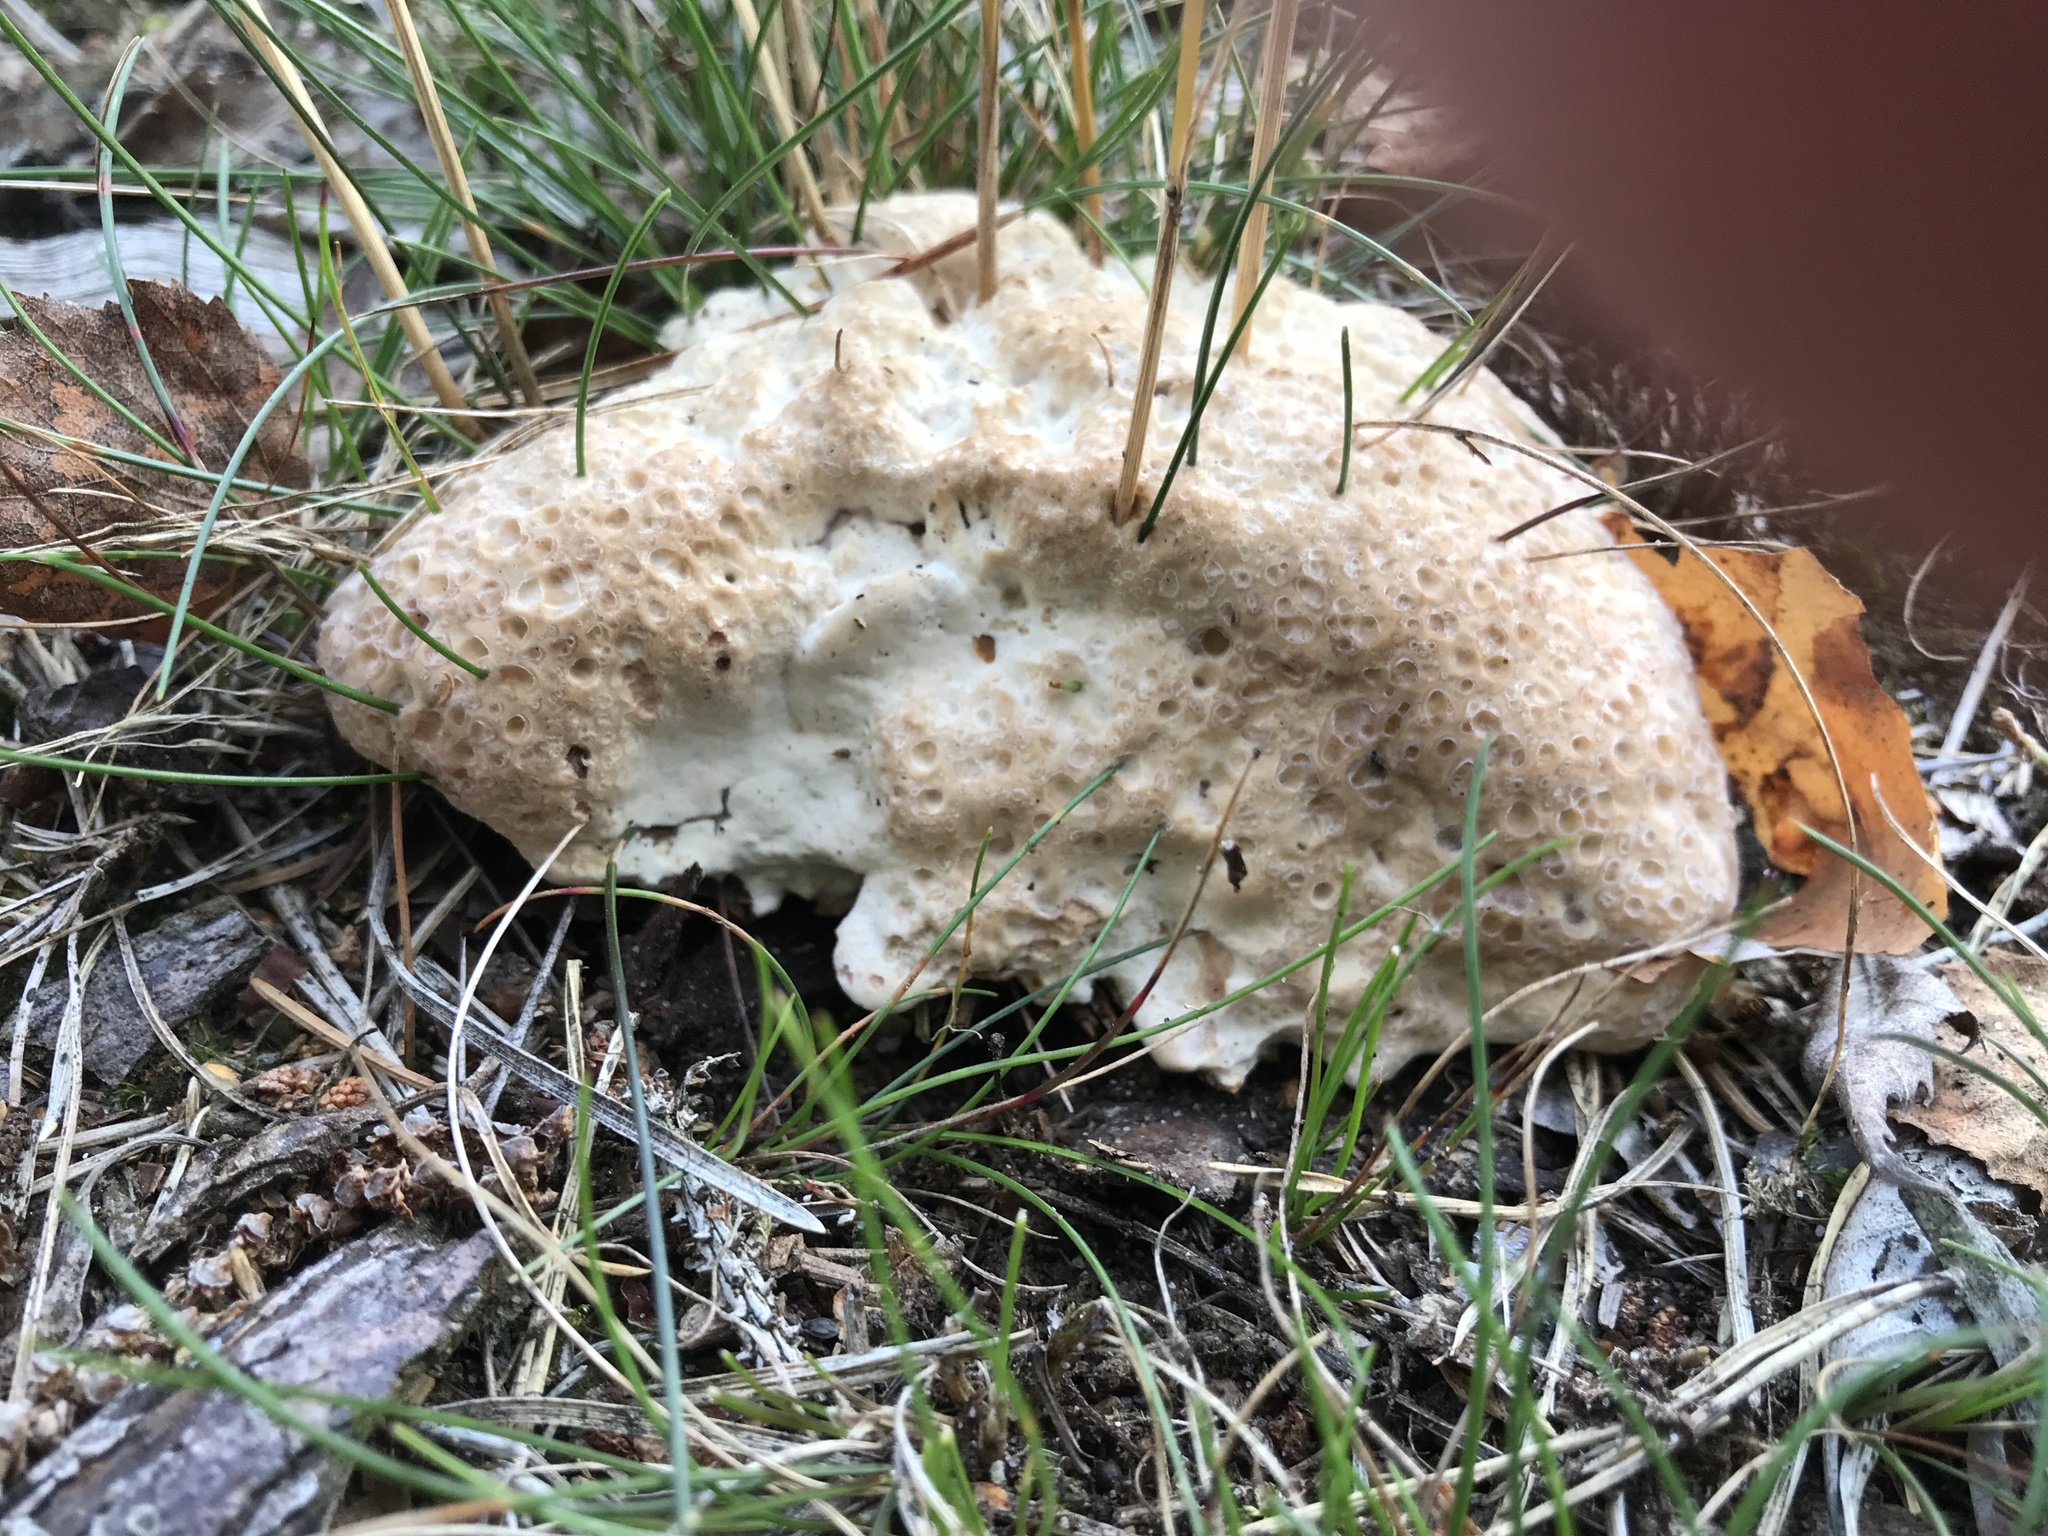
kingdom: Fungi
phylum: Basidiomycota
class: Agaricomycetes
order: Polyporales
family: Sparassidaceae
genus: Sparassis
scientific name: Sparassis crispa
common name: Brain fungus
